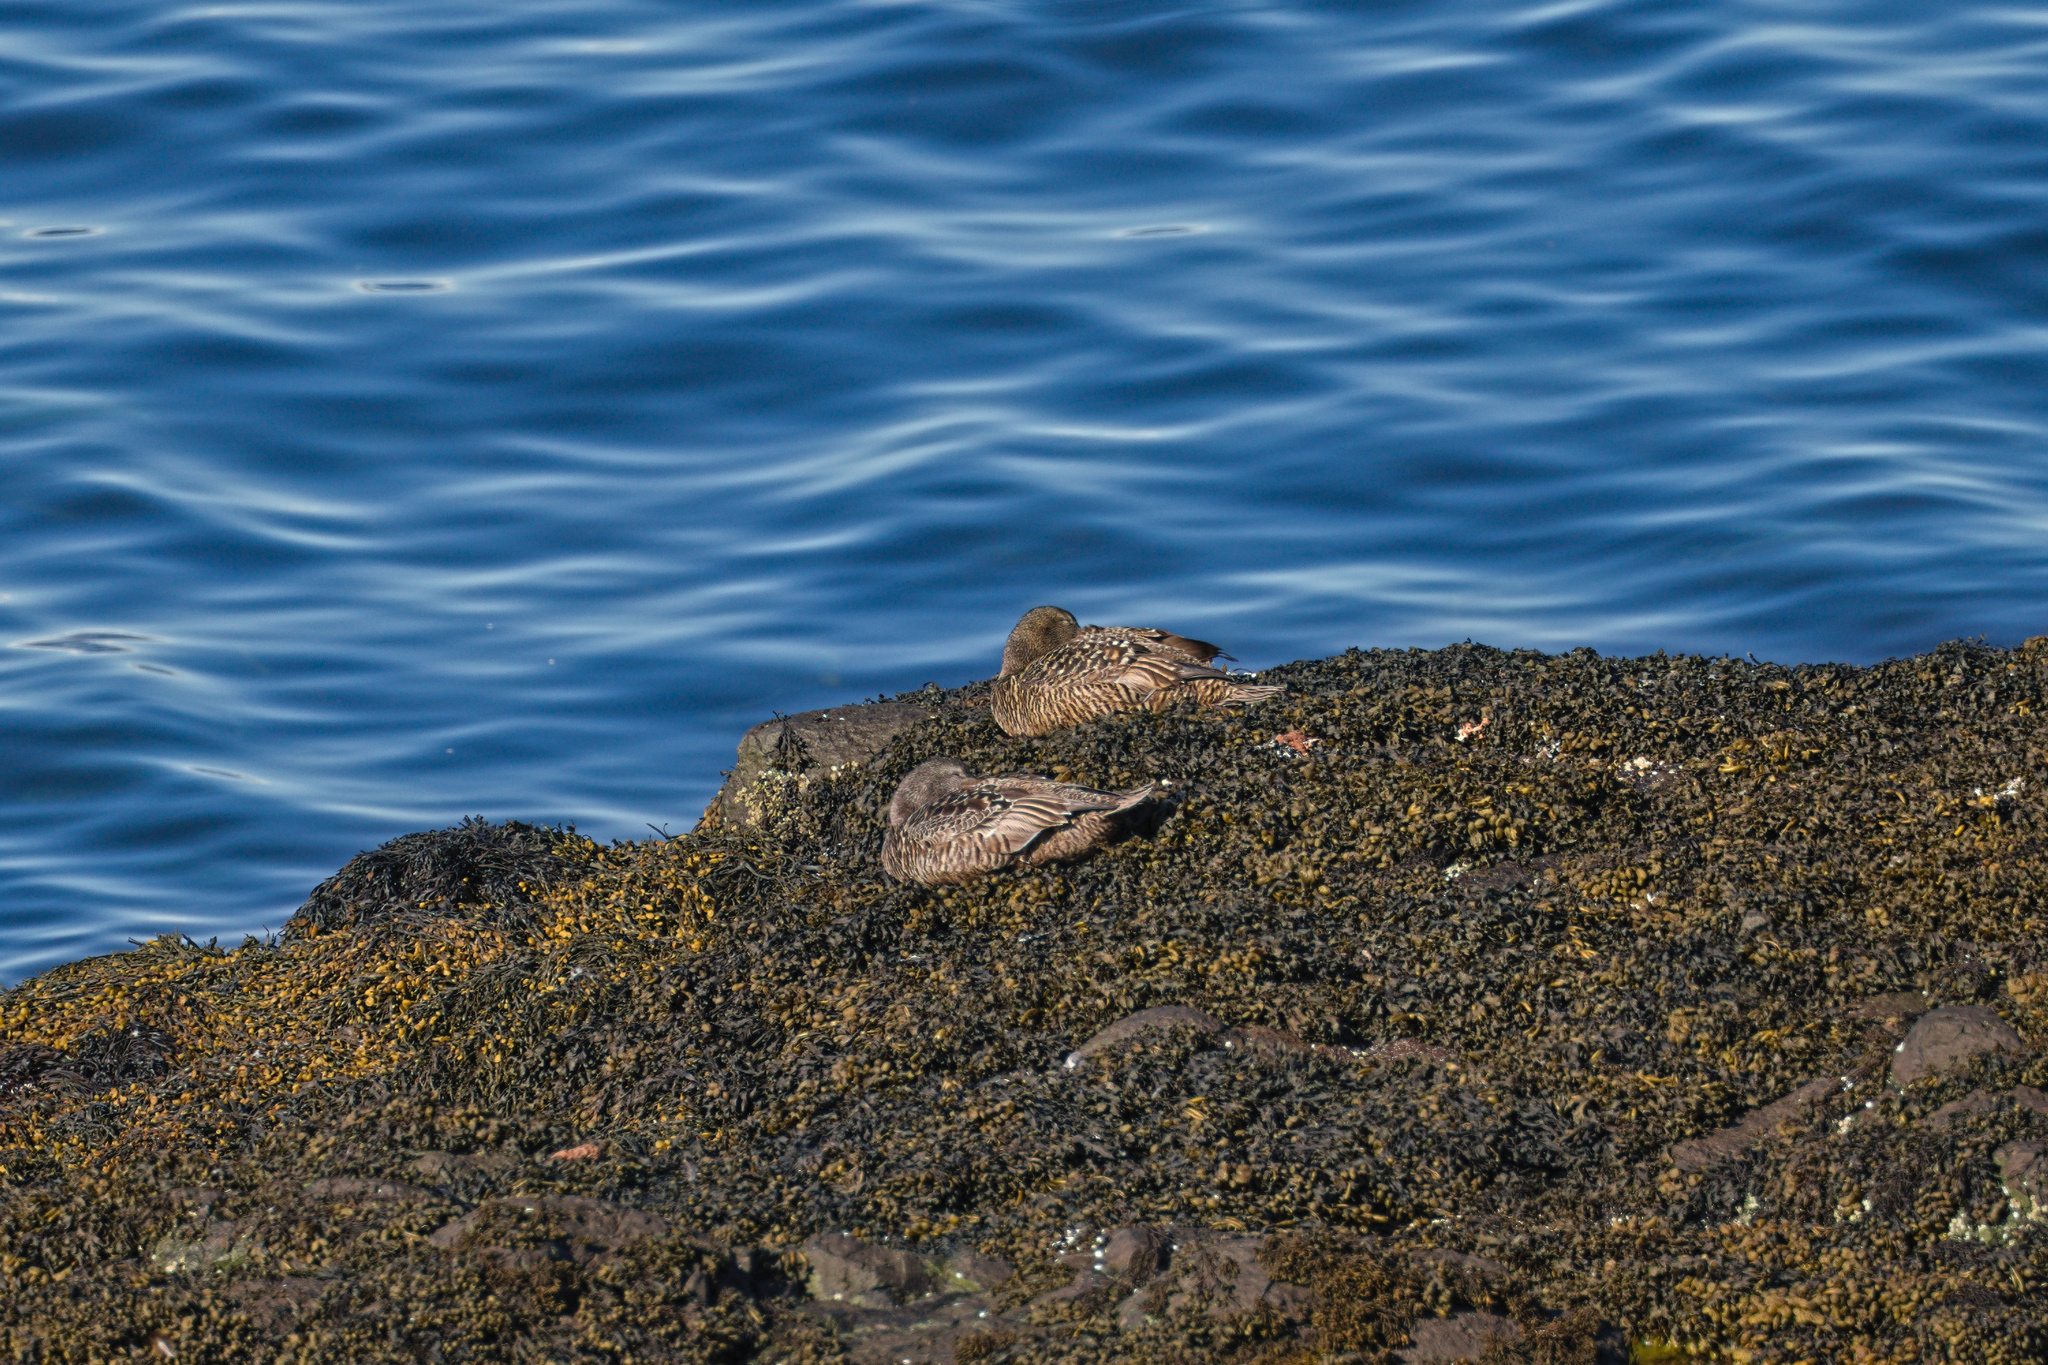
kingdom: Animalia
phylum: Chordata
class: Aves
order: Anseriformes
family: Anatidae
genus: Somateria
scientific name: Somateria mollissima
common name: Common eider
